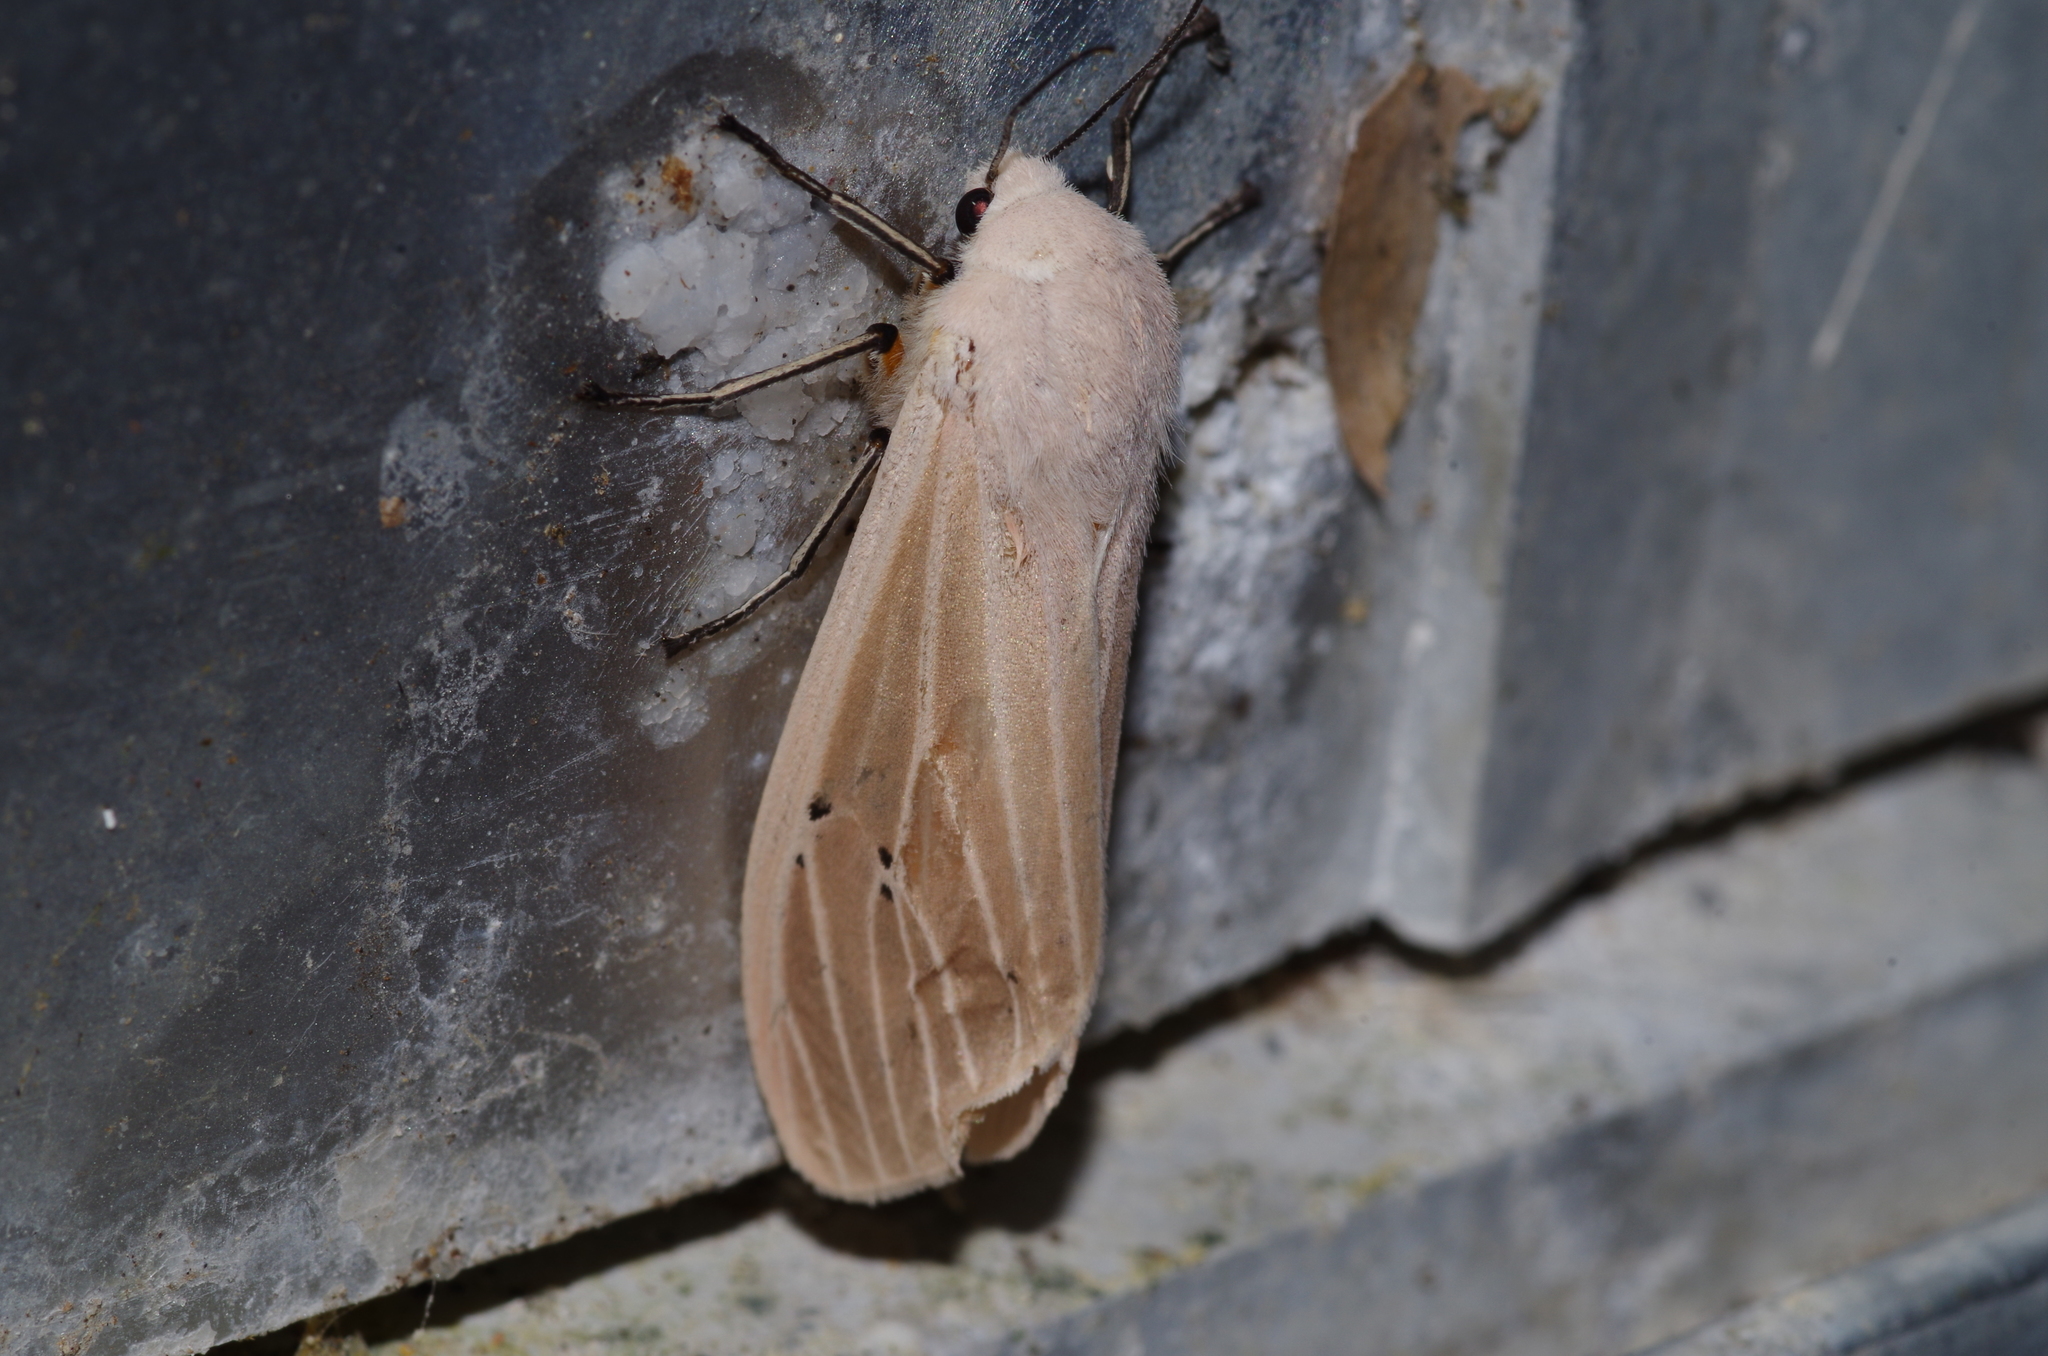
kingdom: Animalia
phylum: Arthropoda
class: Insecta
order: Lepidoptera
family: Erebidae
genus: Creatonotos
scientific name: Creatonotos transiens
